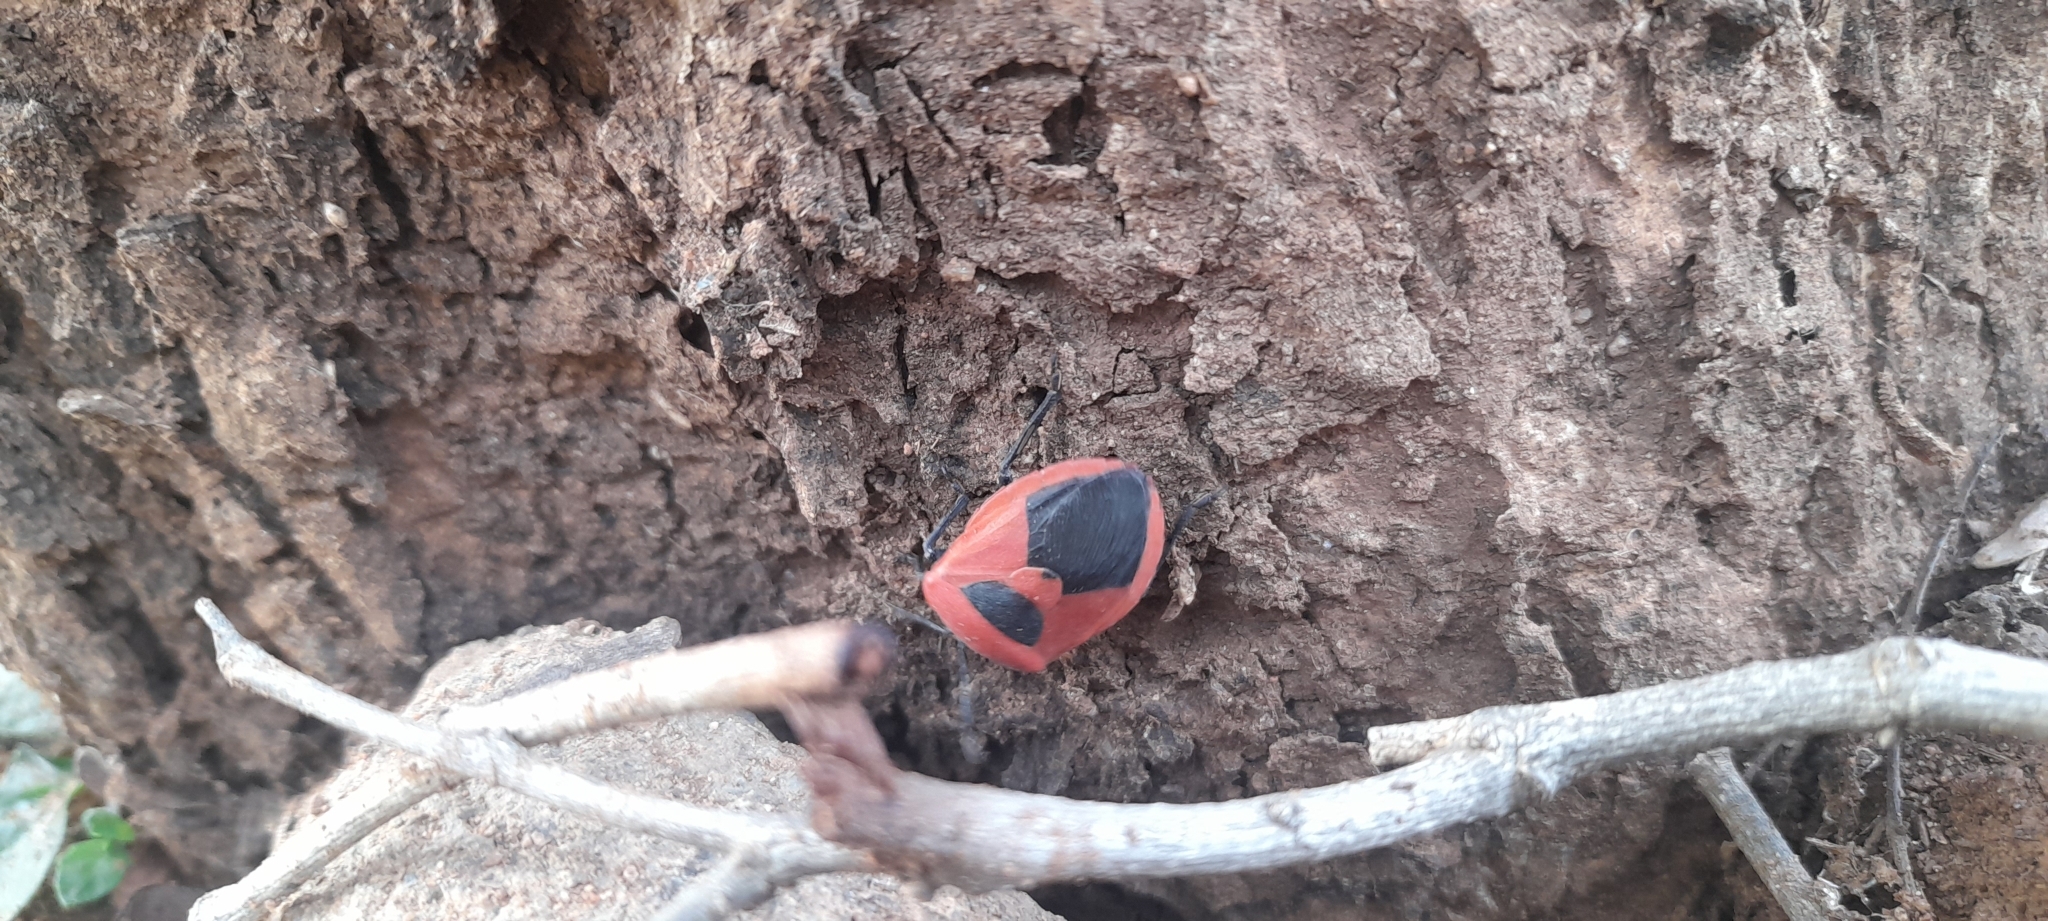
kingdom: Animalia
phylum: Arthropoda
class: Insecta
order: Hemiptera
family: Dinidoridae
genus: Coridius
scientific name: Coridius ianus
